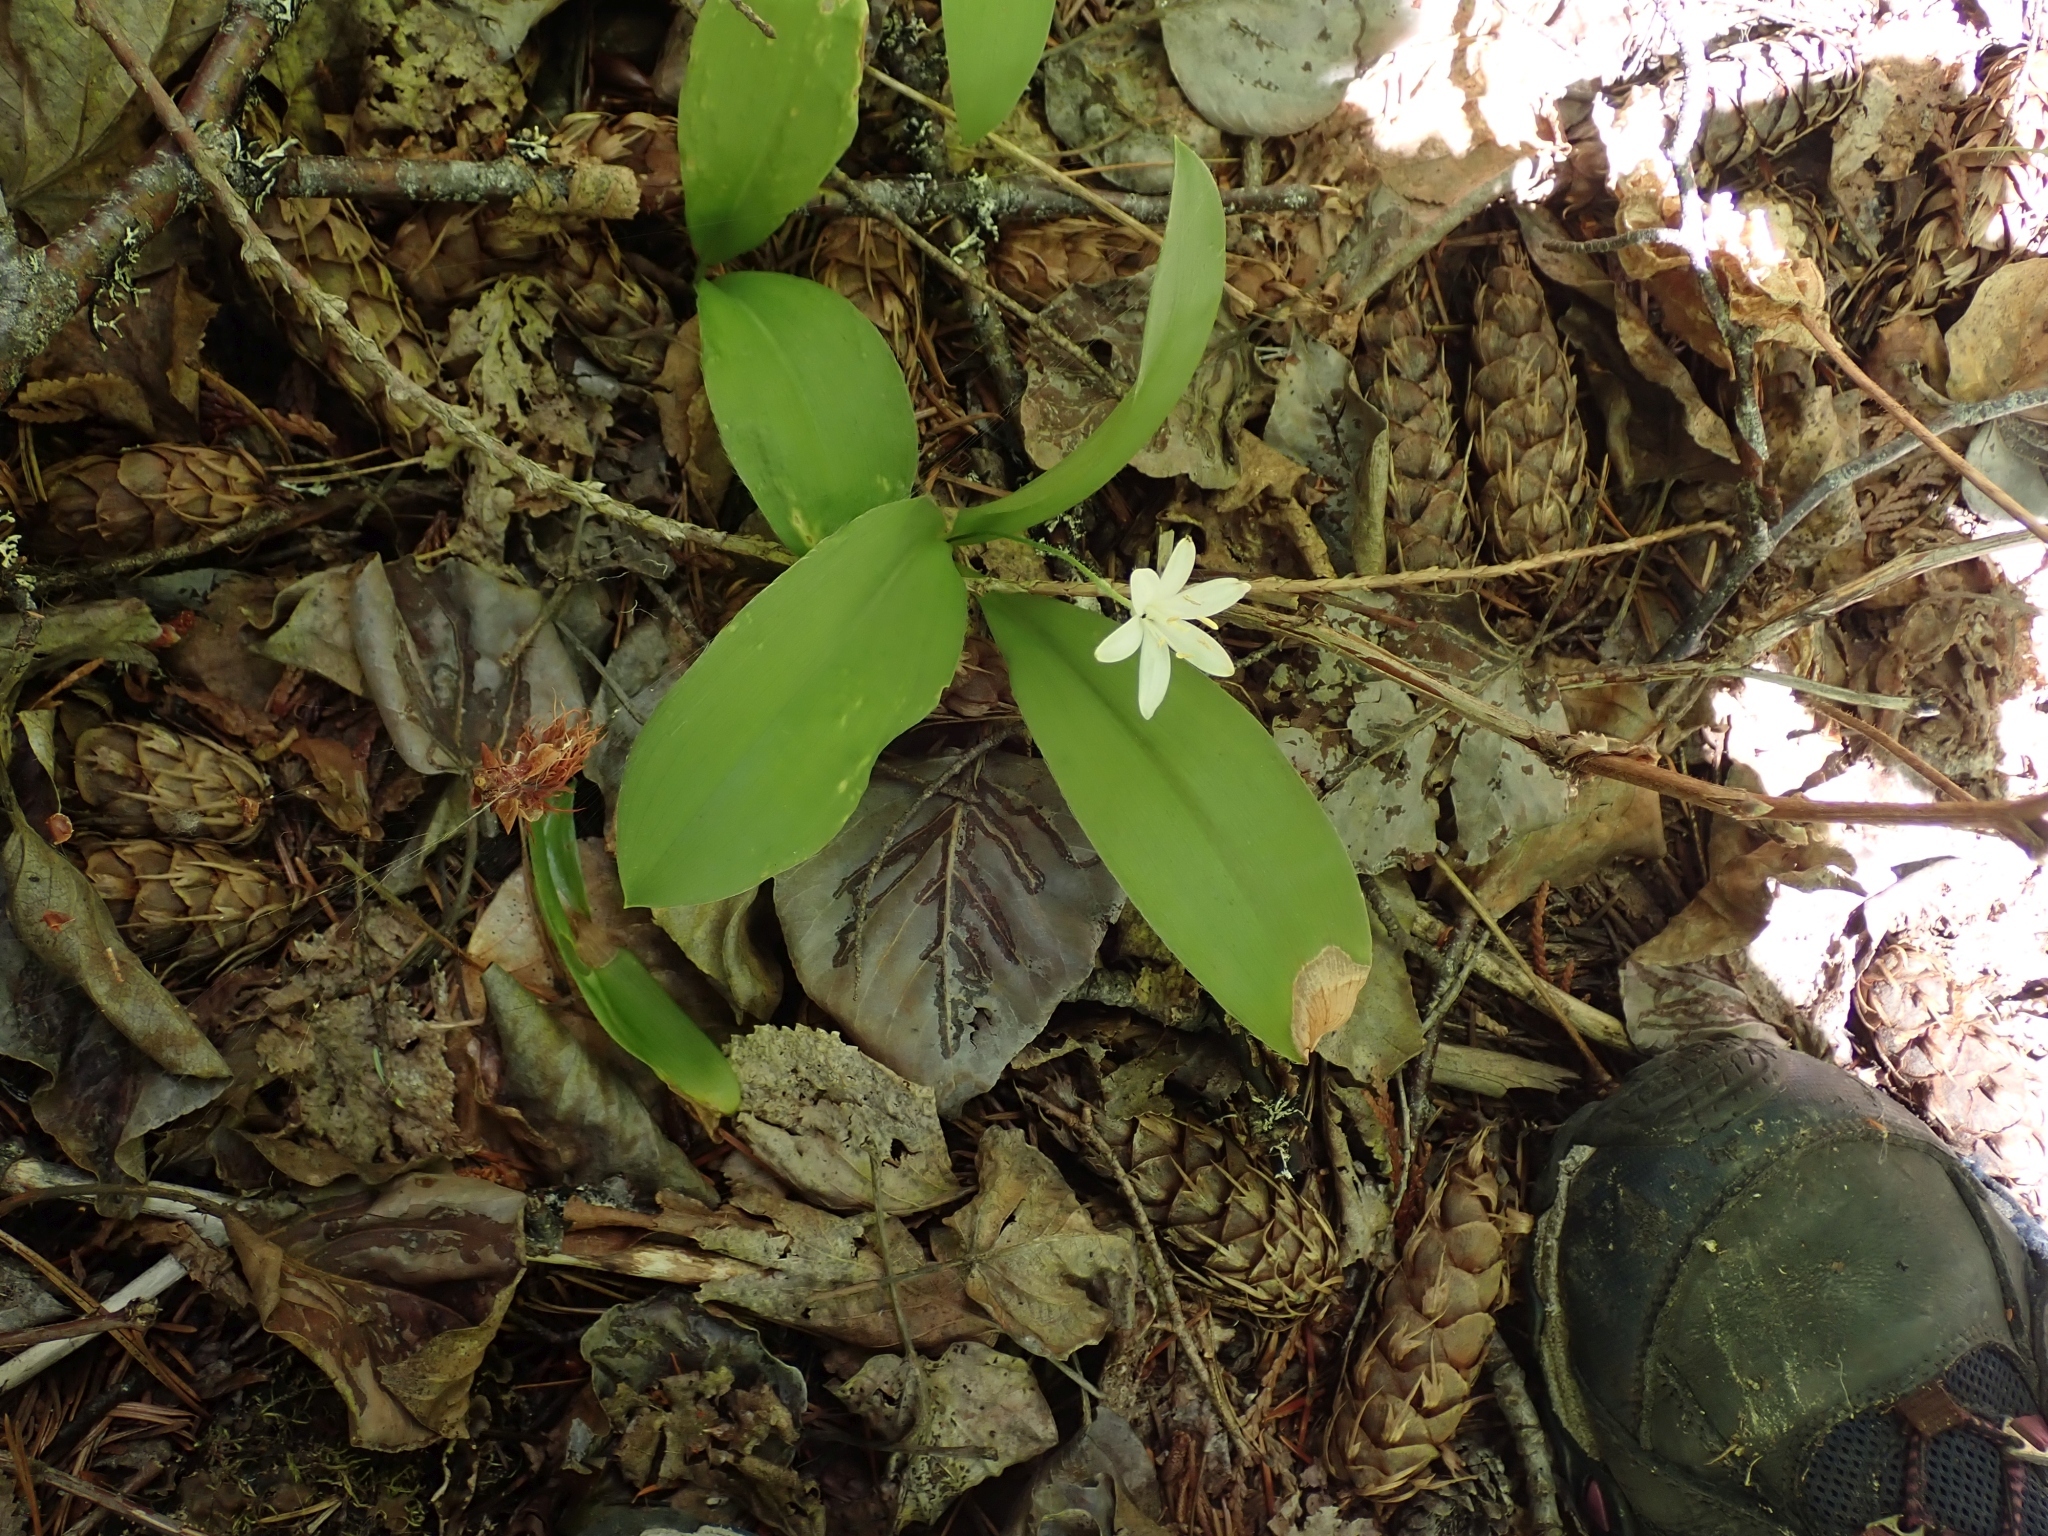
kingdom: Plantae
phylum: Tracheophyta
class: Liliopsida
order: Liliales
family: Liliaceae
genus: Clintonia
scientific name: Clintonia uniflora
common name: Queen's cup
